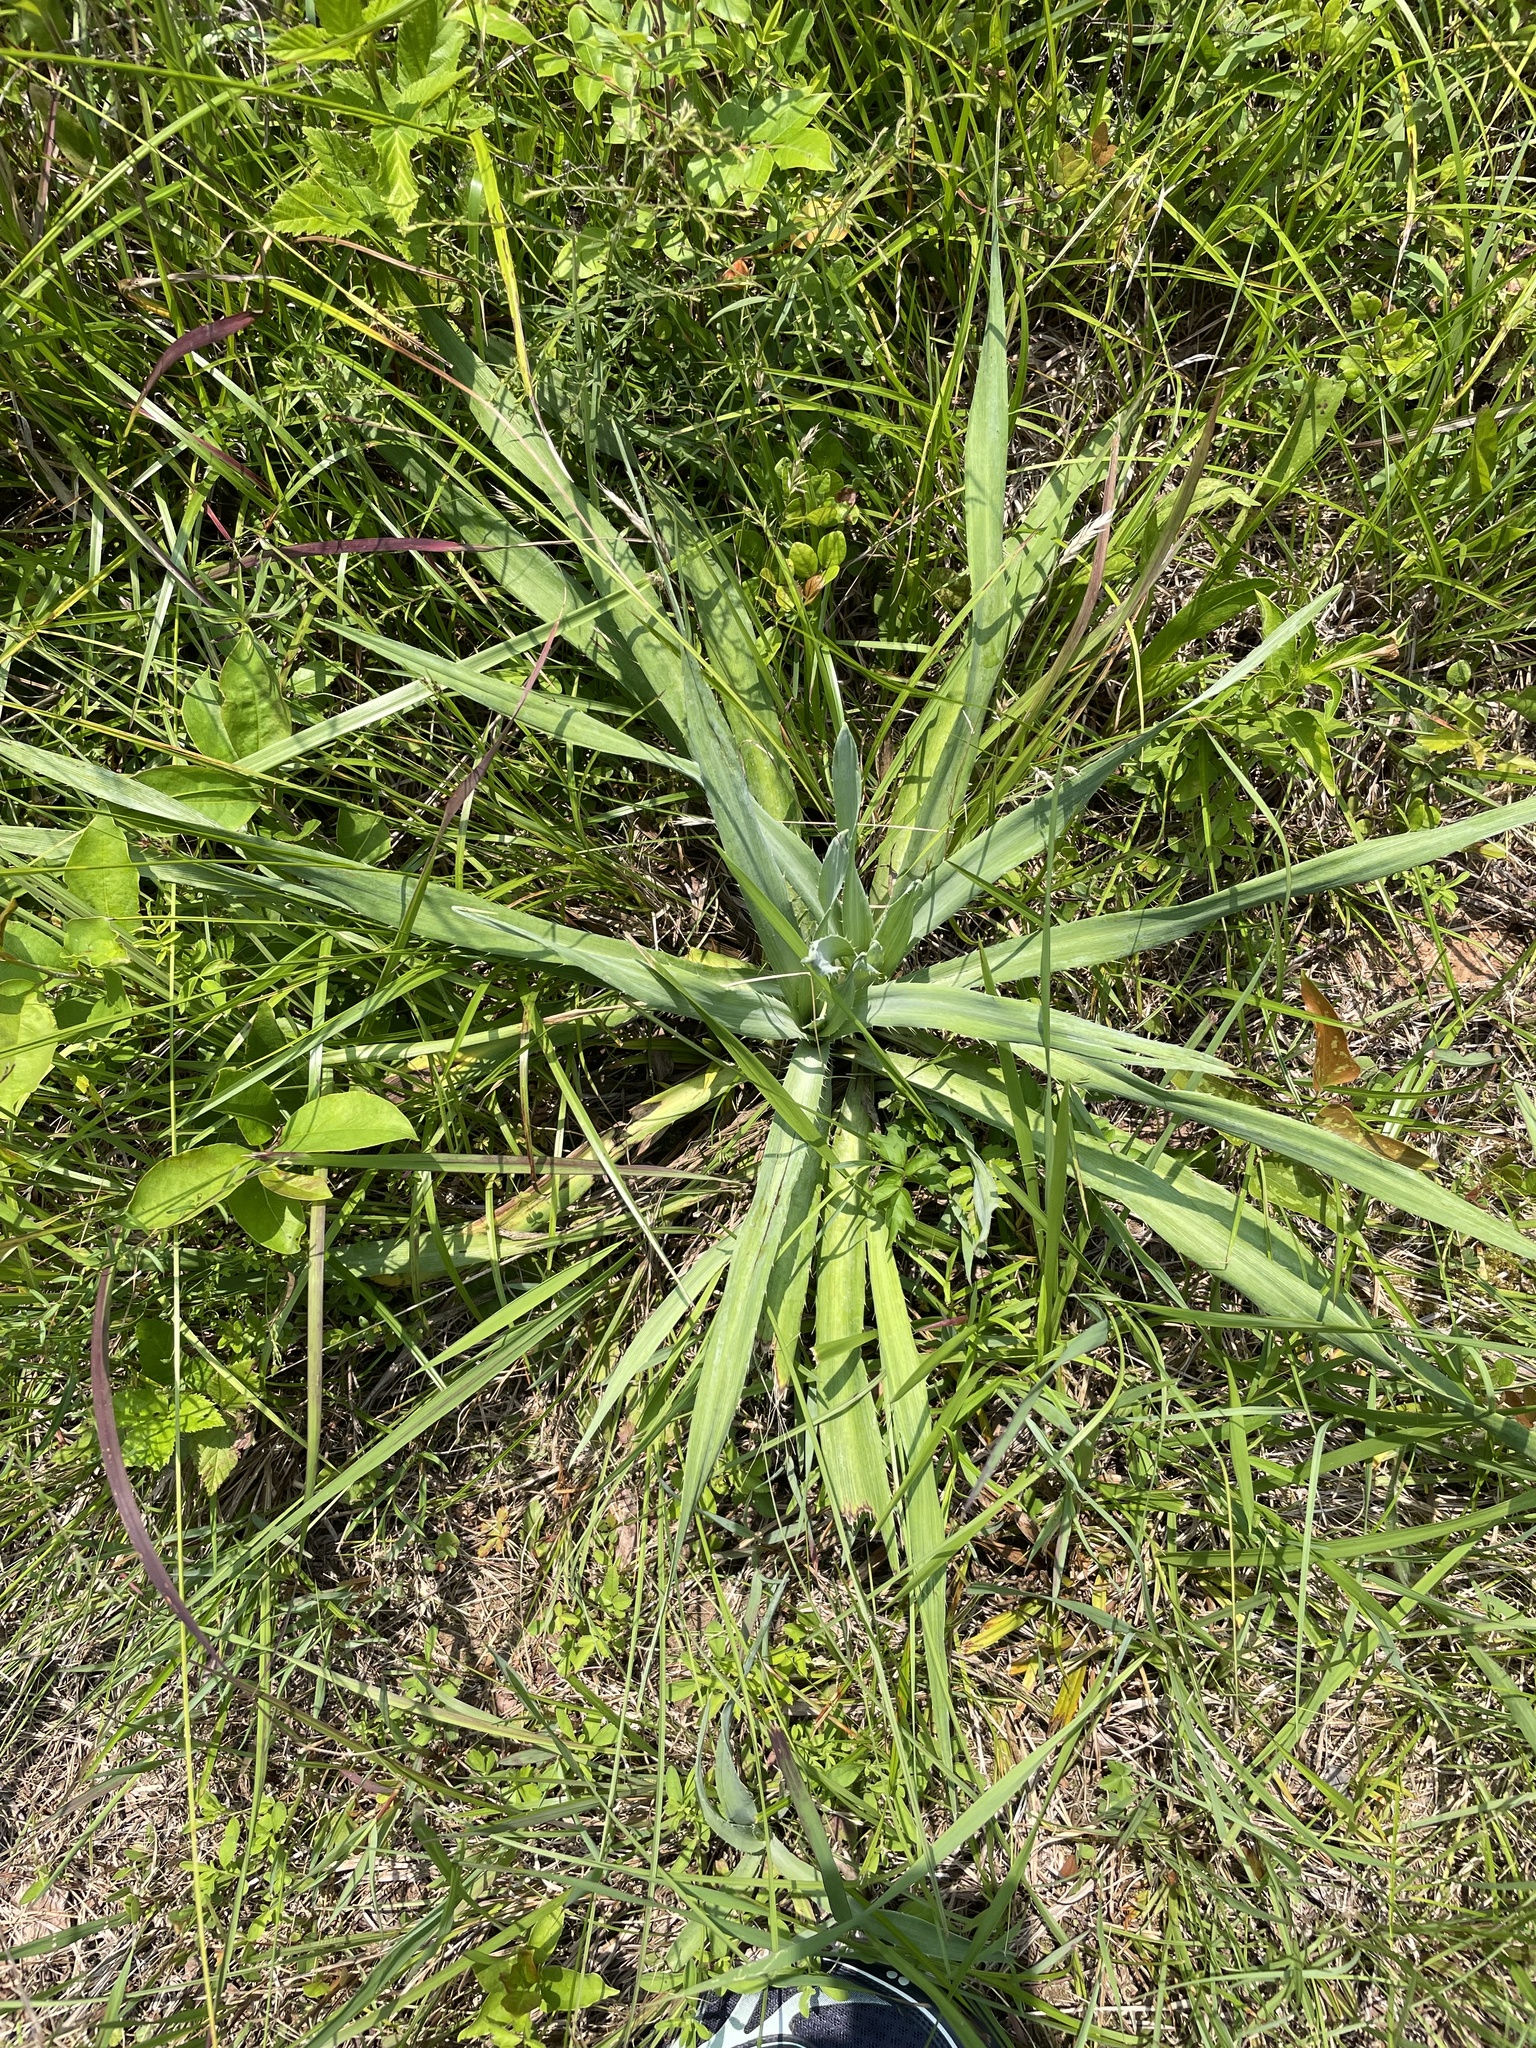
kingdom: Plantae
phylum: Tracheophyta
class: Magnoliopsida
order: Apiales
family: Apiaceae
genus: Eryngium
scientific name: Eryngium yuccifolium
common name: Button eryngo
